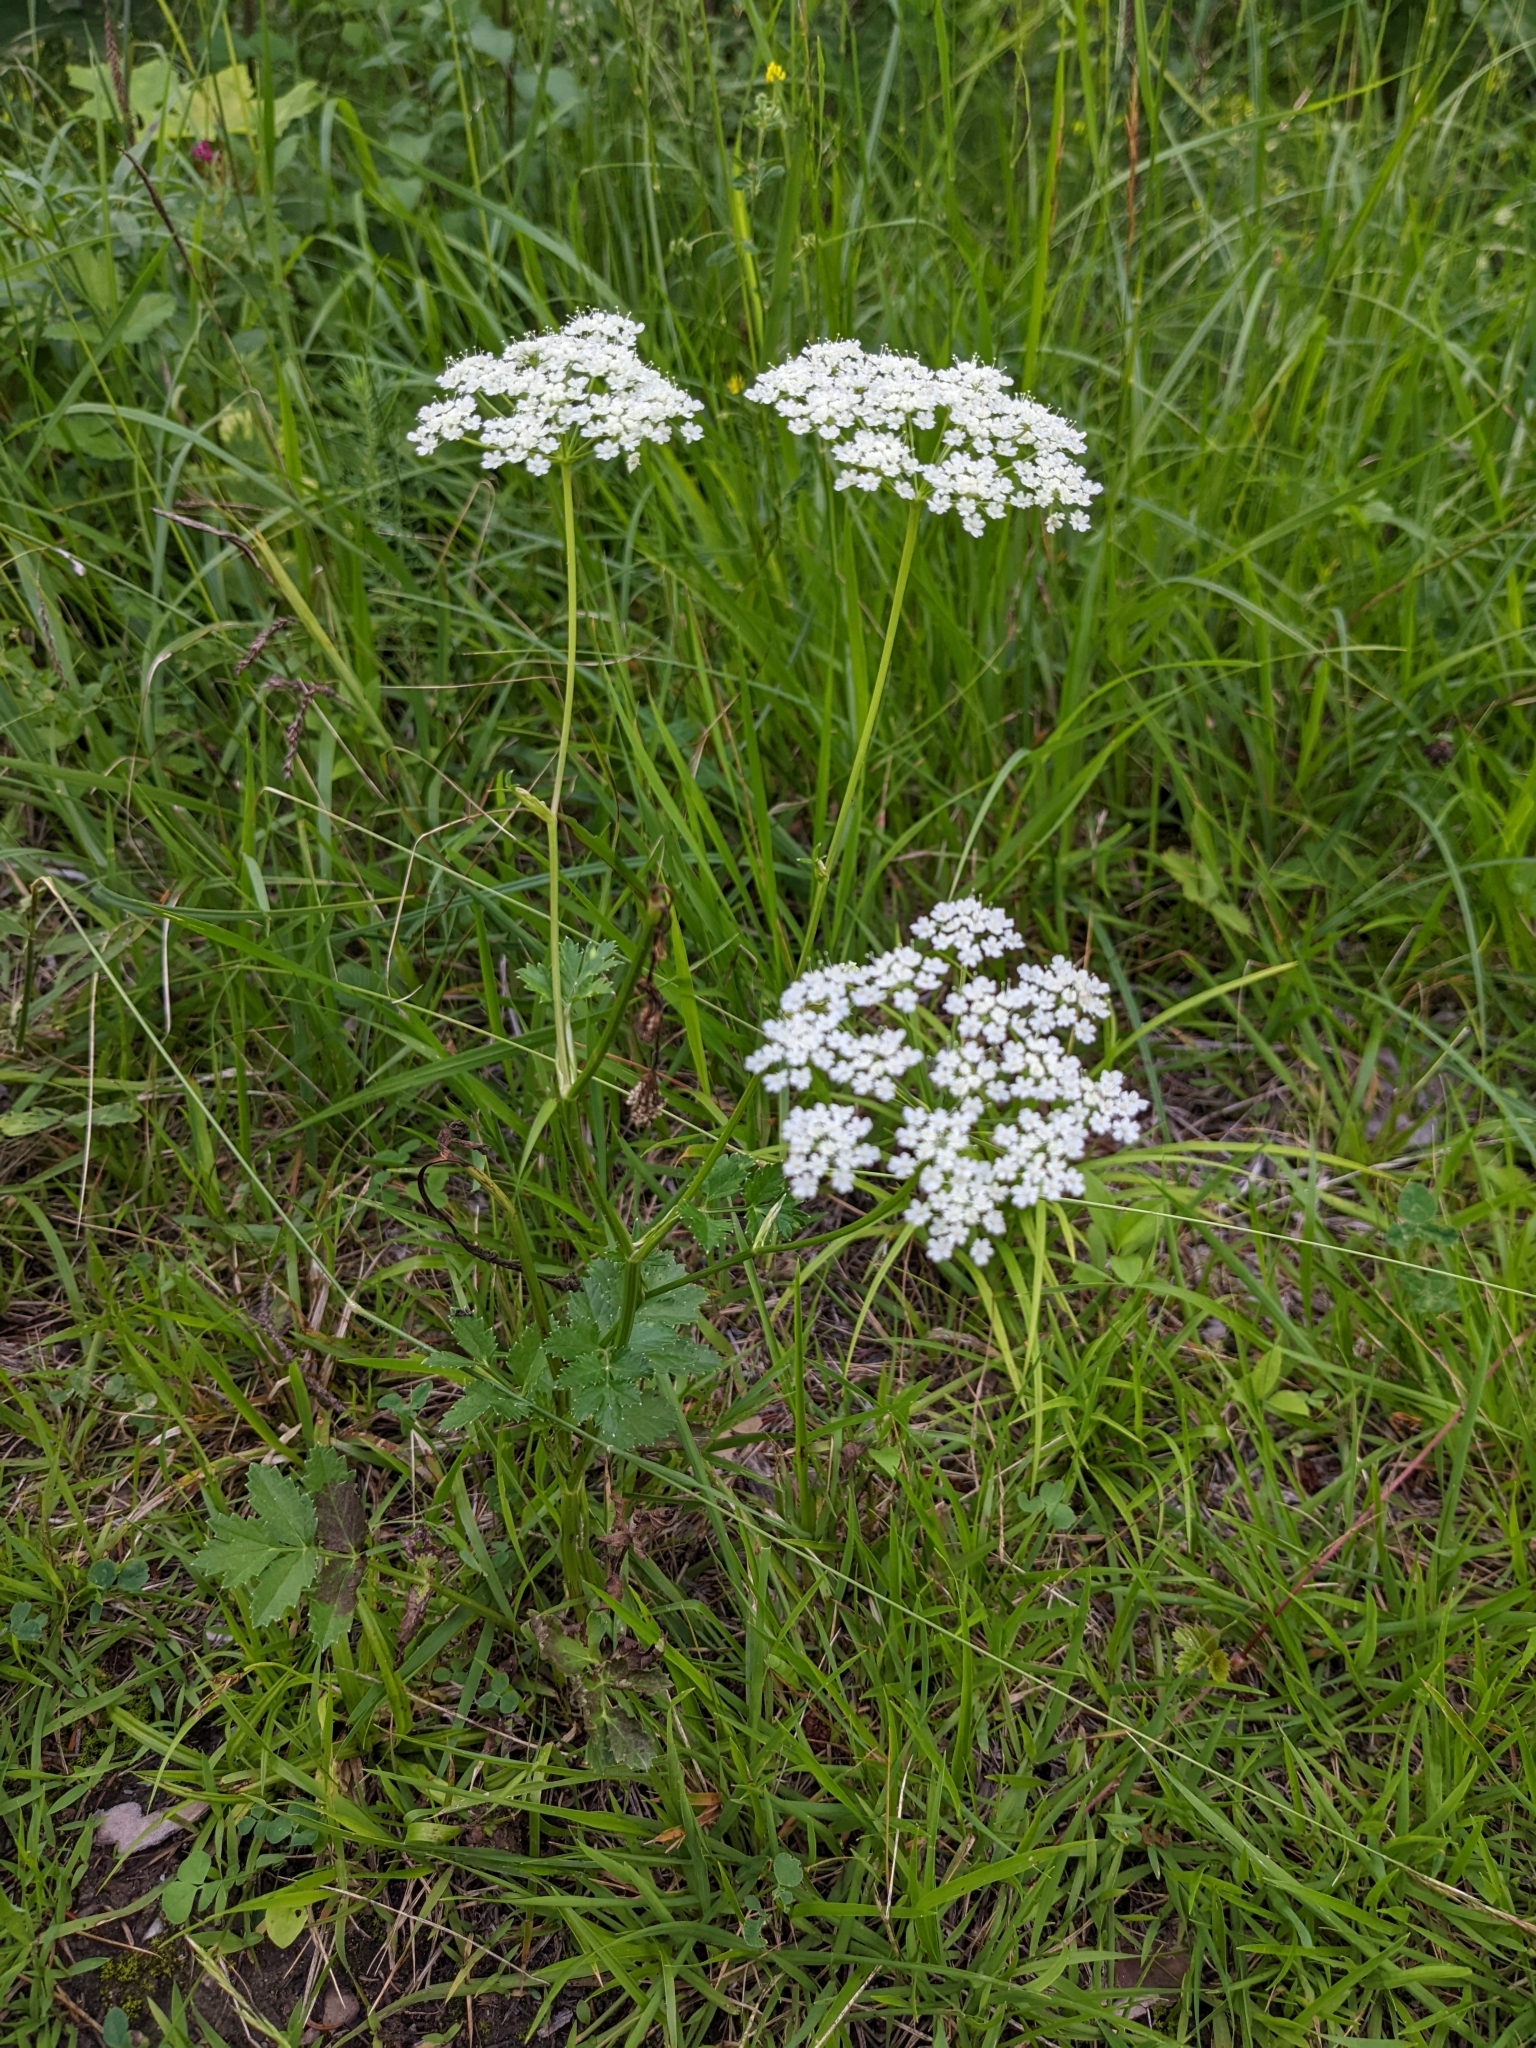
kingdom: Plantae
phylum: Tracheophyta
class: Magnoliopsida
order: Apiales
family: Apiaceae
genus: Pimpinella
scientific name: Pimpinella saxifraga
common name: Burnet-saxifrage
